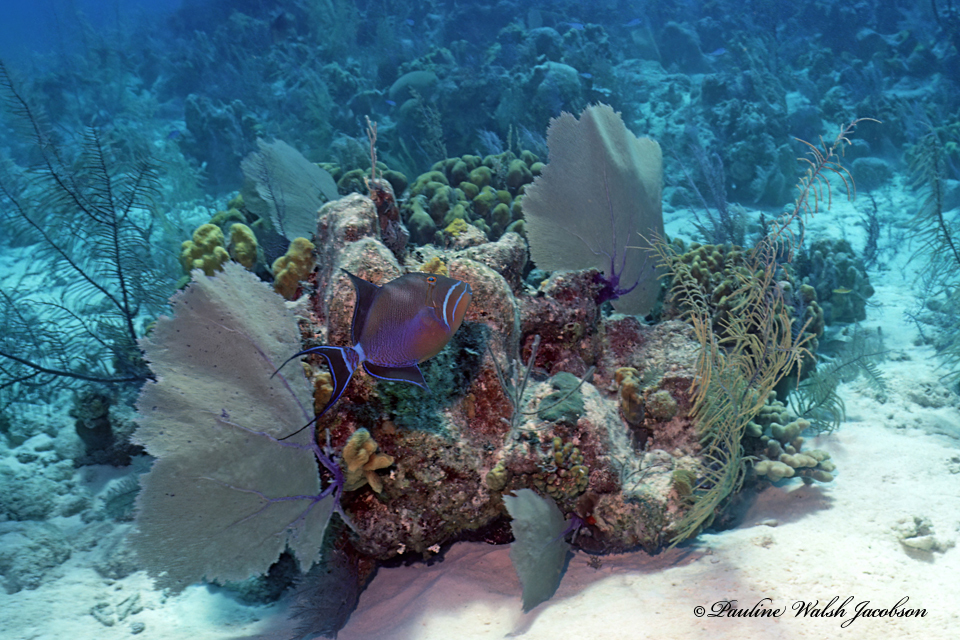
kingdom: Animalia
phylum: Chordata
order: Tetraodontiformes
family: Balistidae
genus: Balistes
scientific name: Balistes vetula
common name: Queen triggerfish
